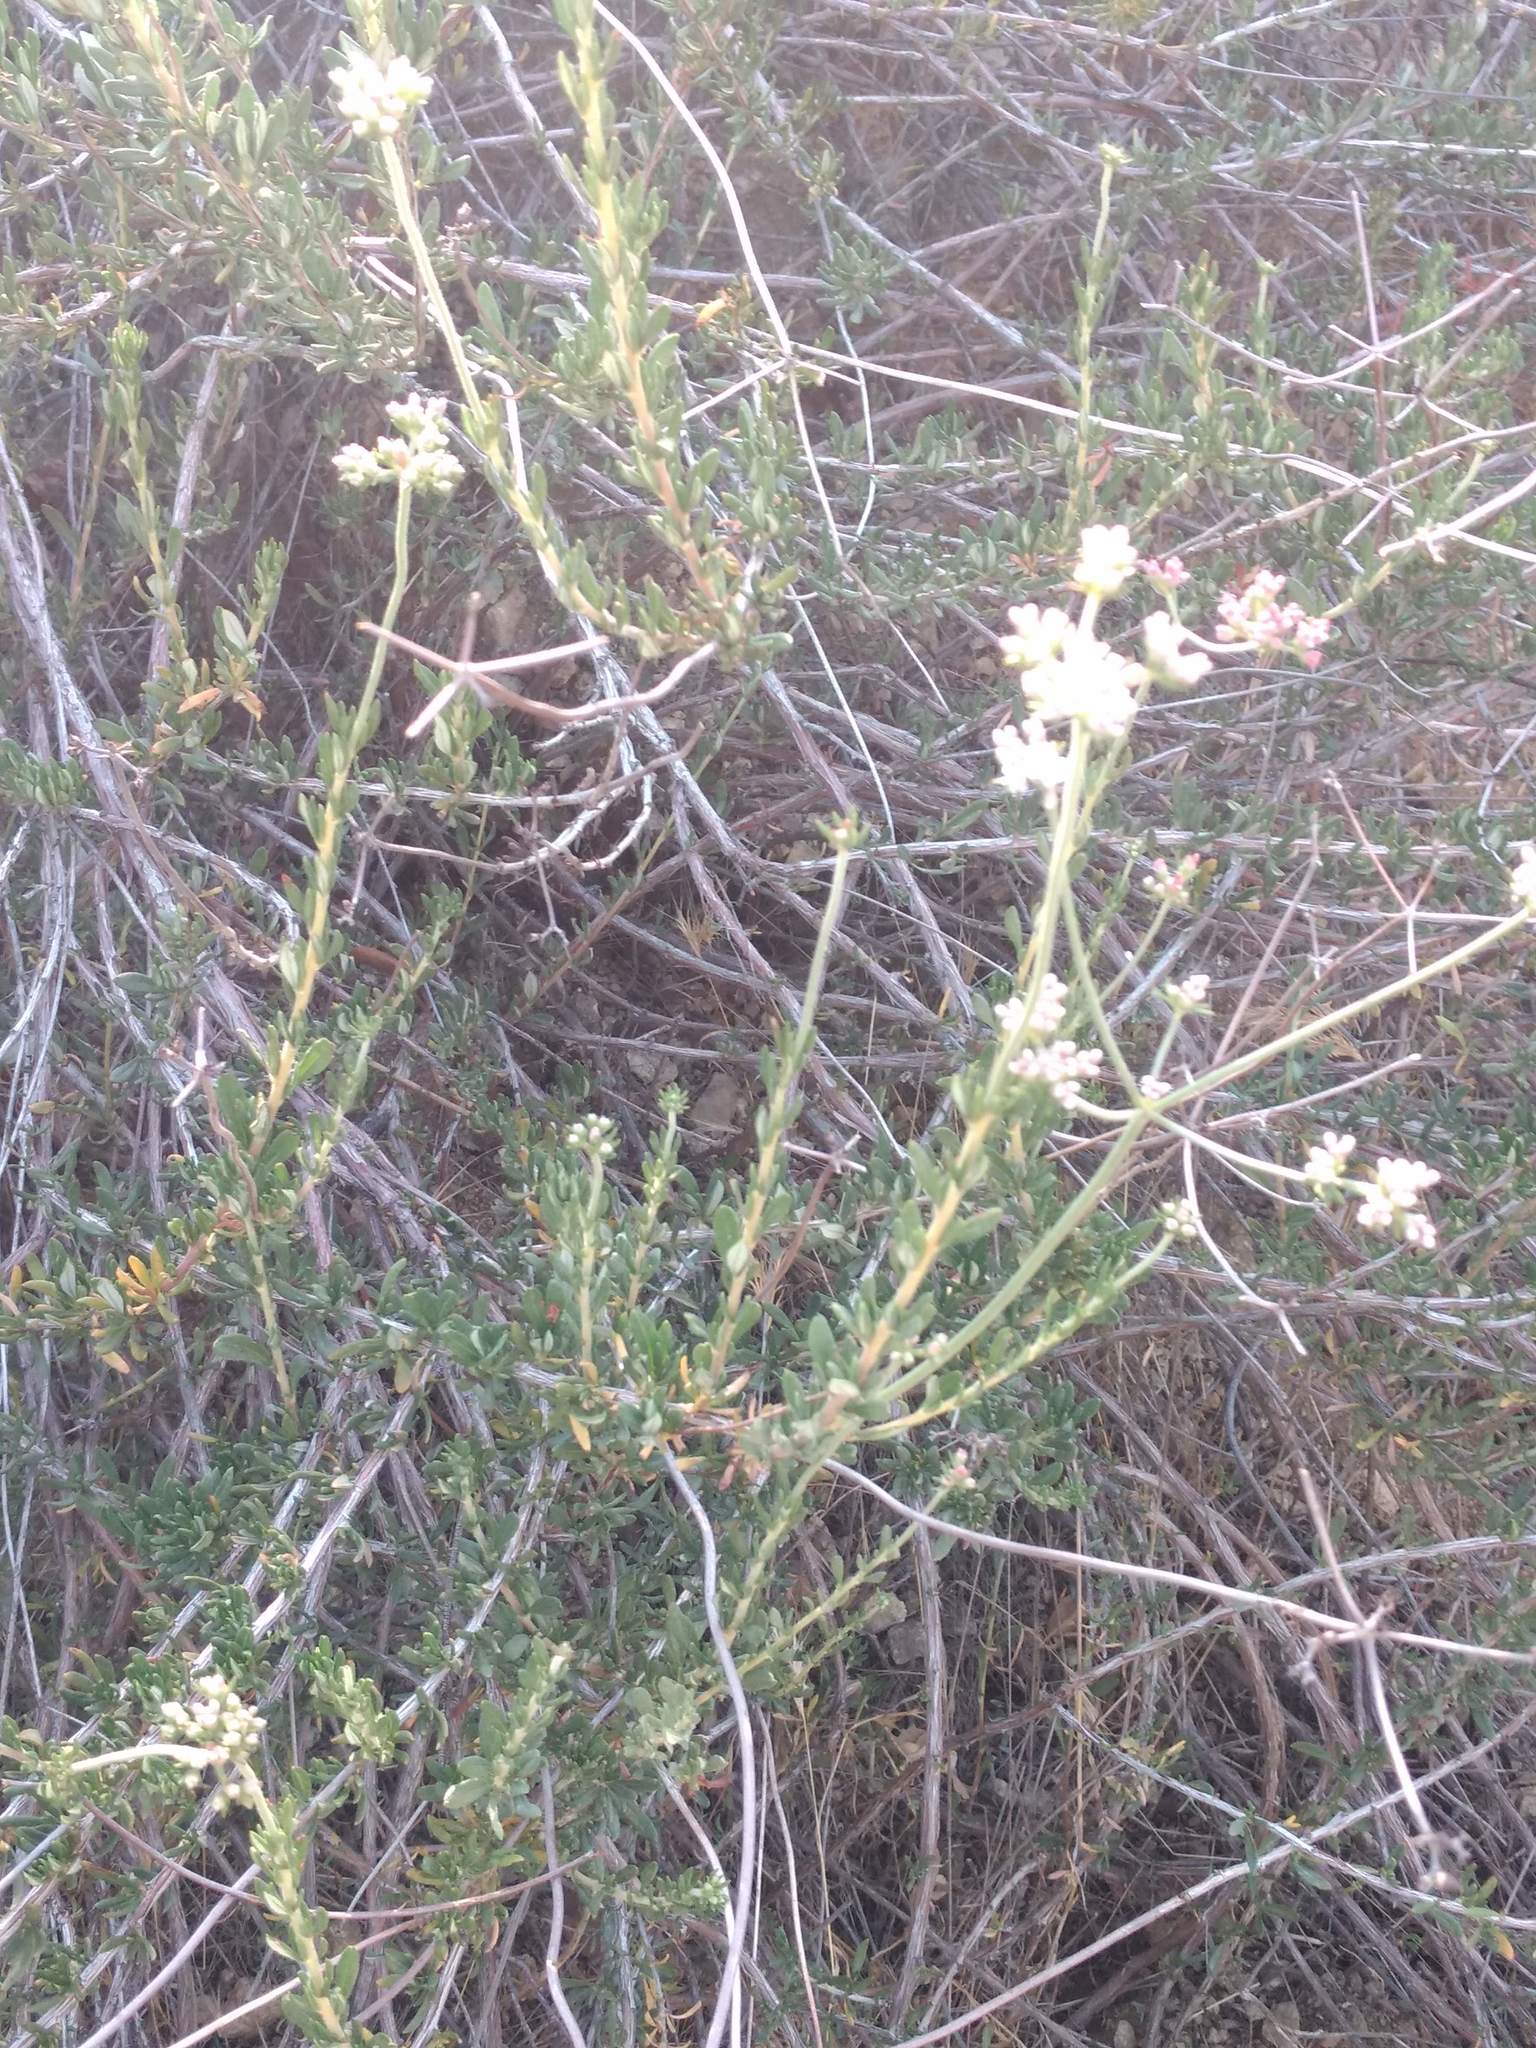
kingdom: Plantae
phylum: Tracheophyta
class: Magnoliopsida
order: Caryophyllales
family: Polygonaceae
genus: Eriogonum
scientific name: Eriogonum fasciculatum
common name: California wild buckwheat
